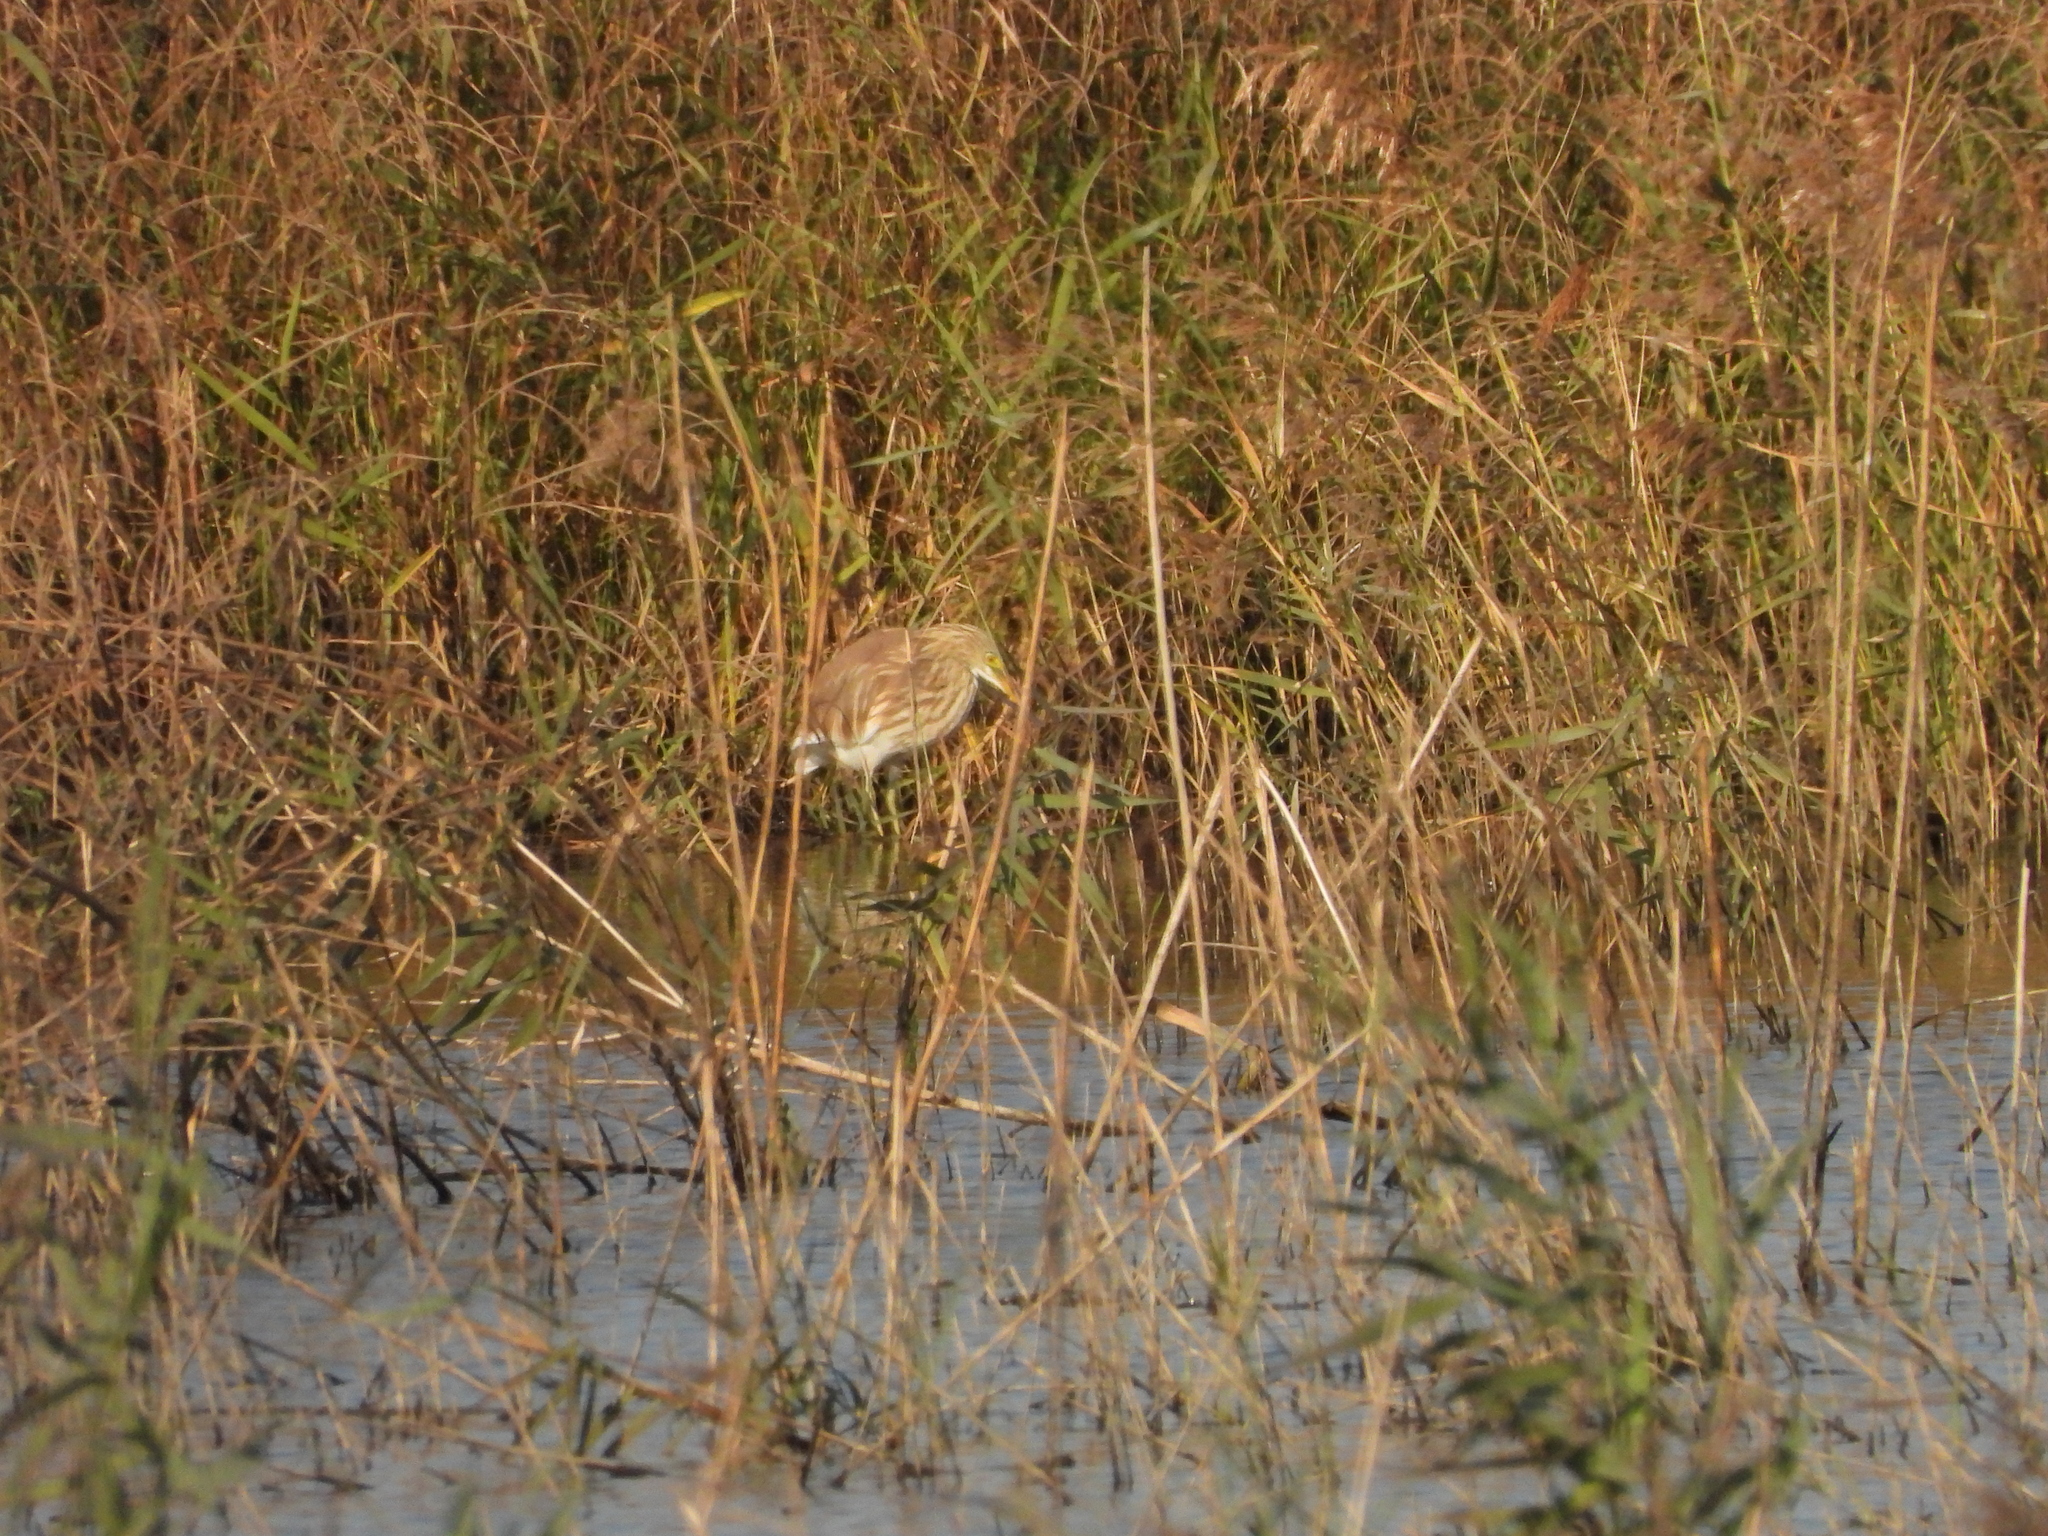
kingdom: Animalia
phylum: Chordata
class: Aves
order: Pelecaniformes
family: Ardeidae
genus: Ardeola
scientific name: Ardeola bacchus
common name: Chinese pond heron
